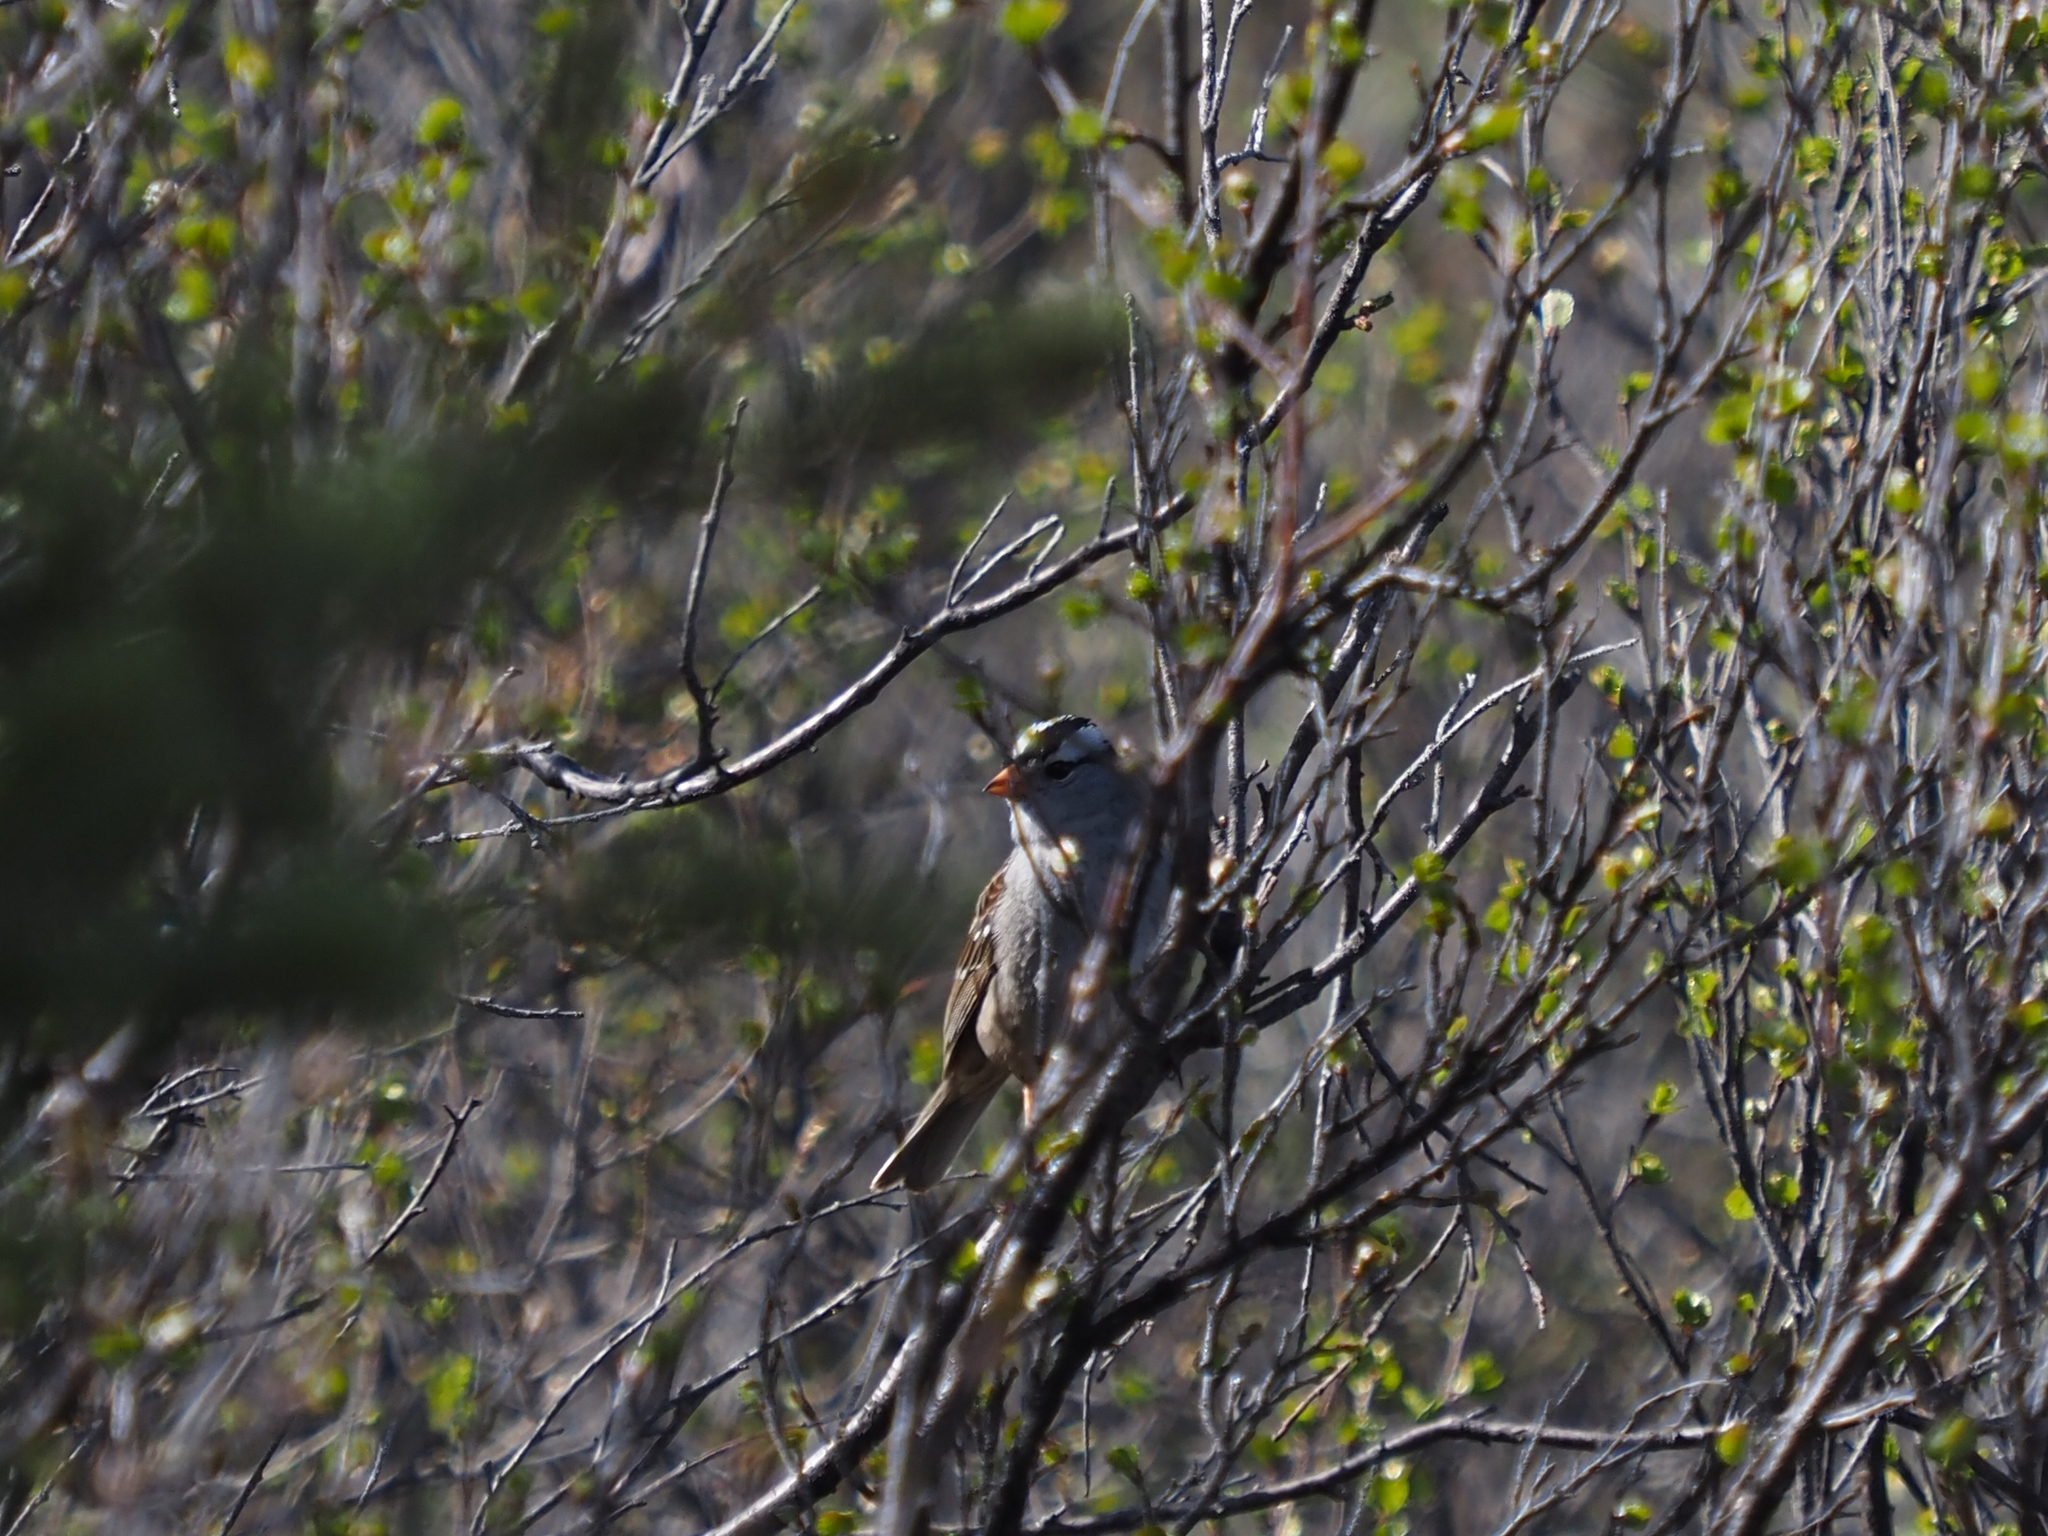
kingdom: Animalia
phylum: Chordata
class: Aves
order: Passeriformes
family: Passerellidae
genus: Zonotrichia
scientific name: Zonotrichia leucophrys
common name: White-crowned sparrow
